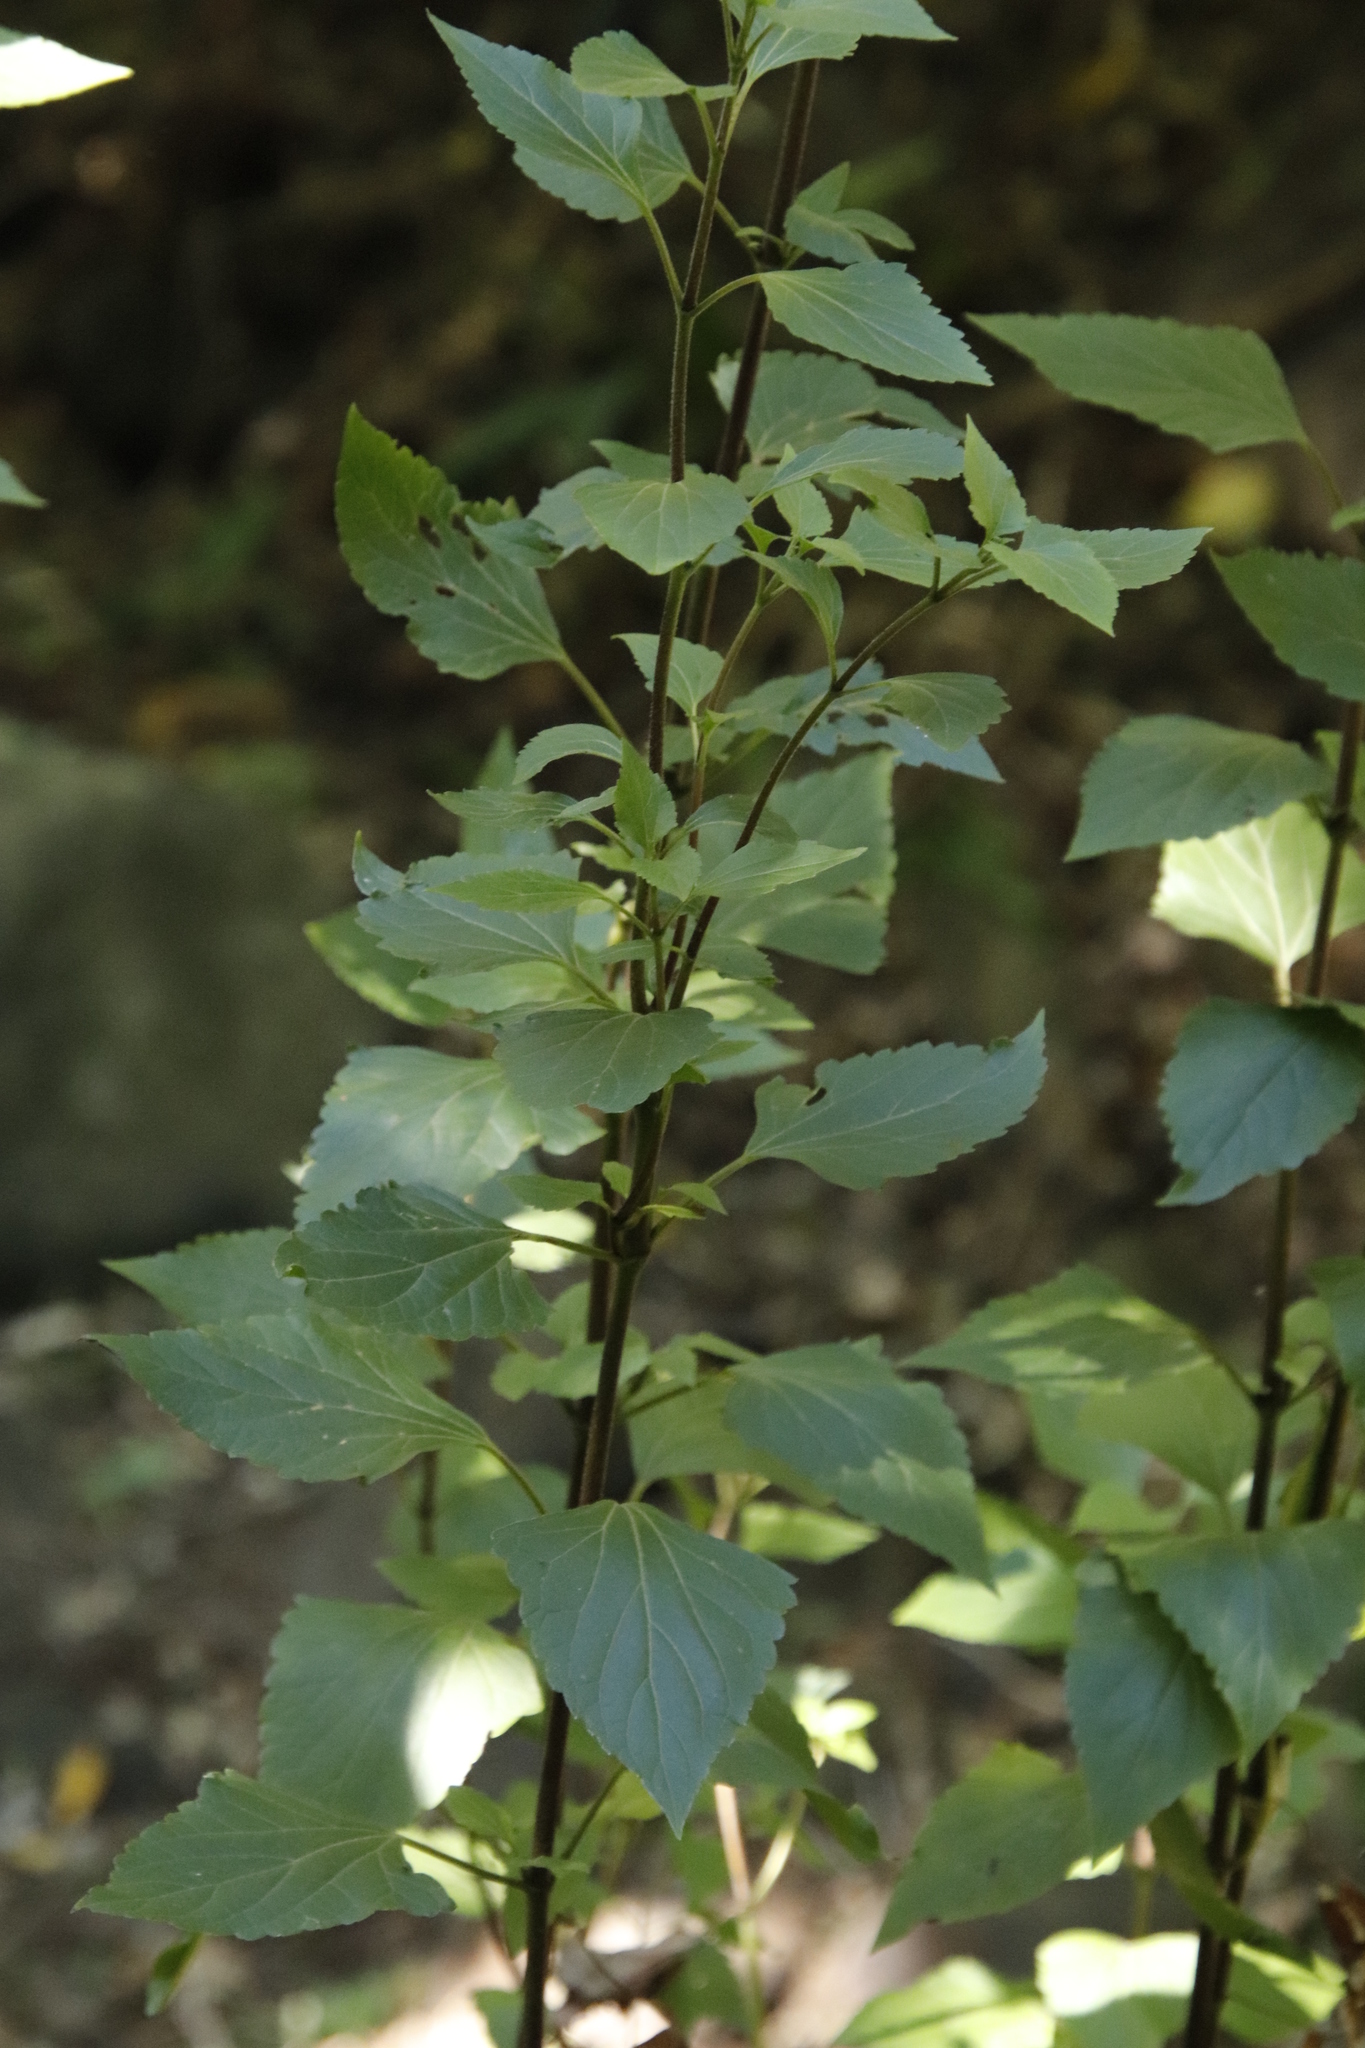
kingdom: Plantae
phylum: Tracheophyta
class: Magnoliopsida
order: Asterales
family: Asteraceae
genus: Ageratina
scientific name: Ageratina adenophora
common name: Sticky snakeroot
